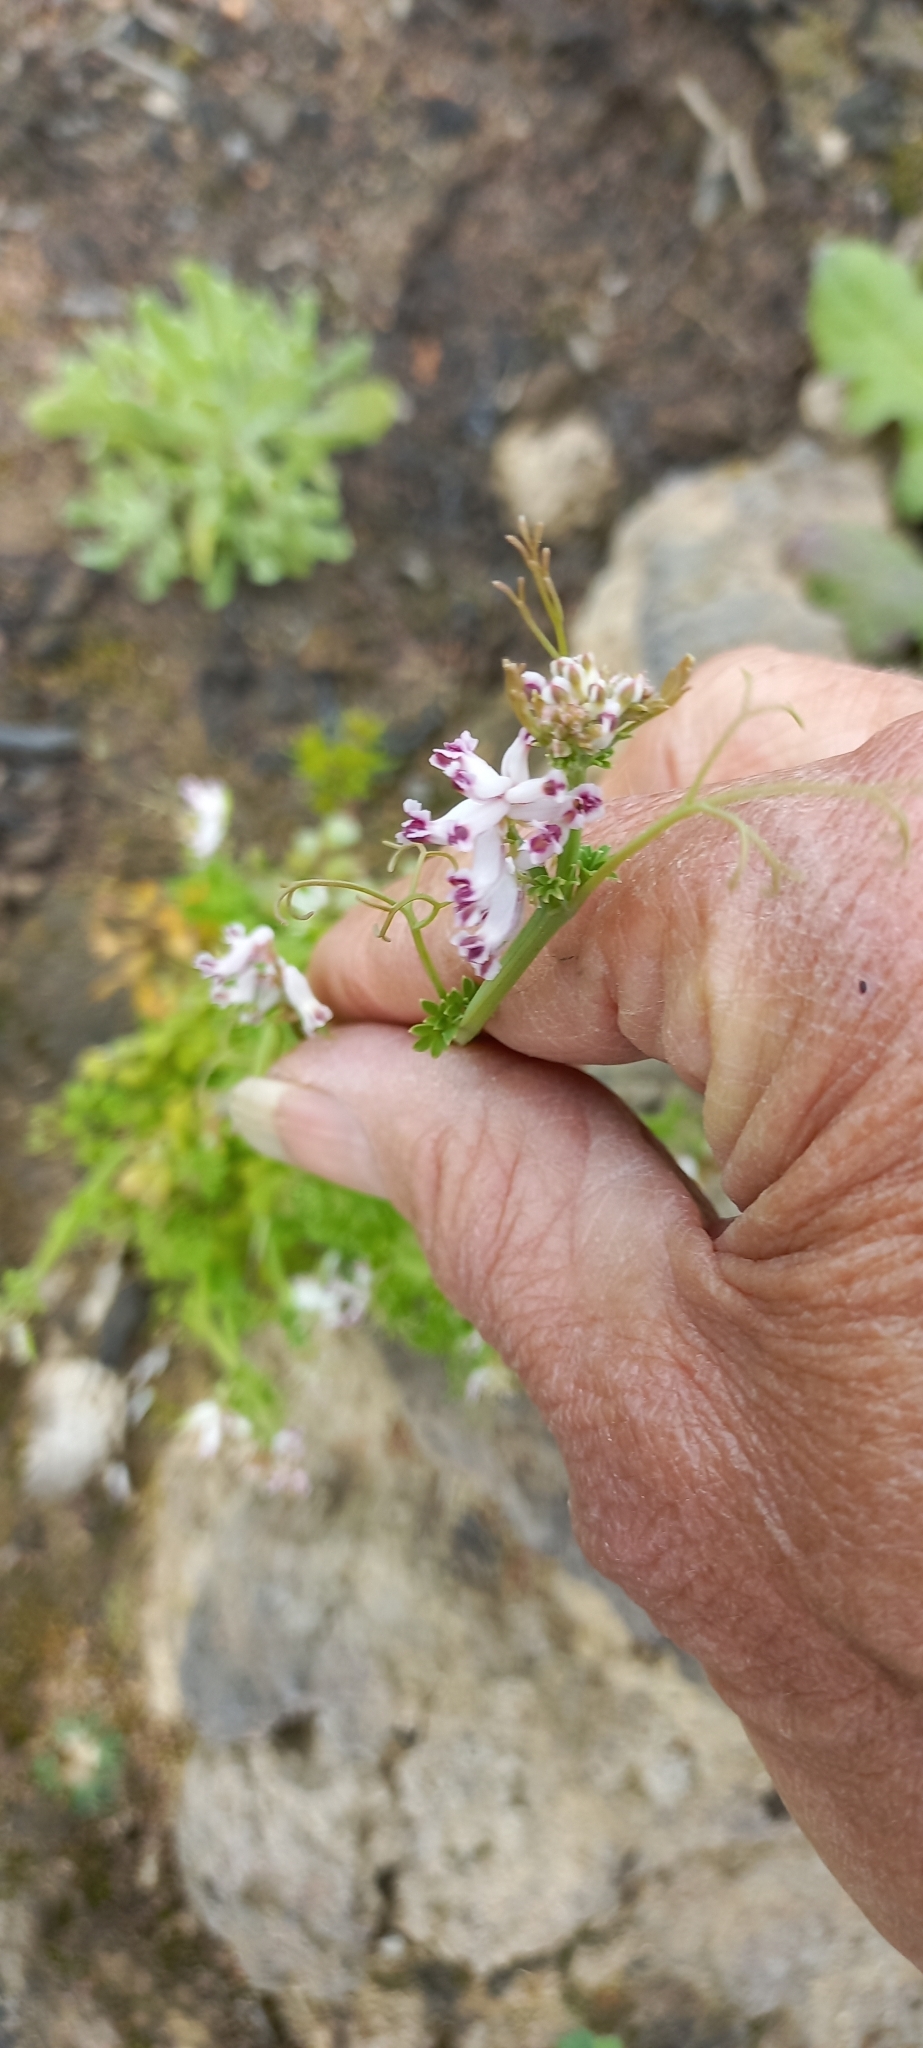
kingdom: Plantae
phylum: Tracheophyta
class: Magnoliopsida
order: Ranunculales
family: Papaveraceae
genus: Cysticapnos
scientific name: Cysticapnos cracca
